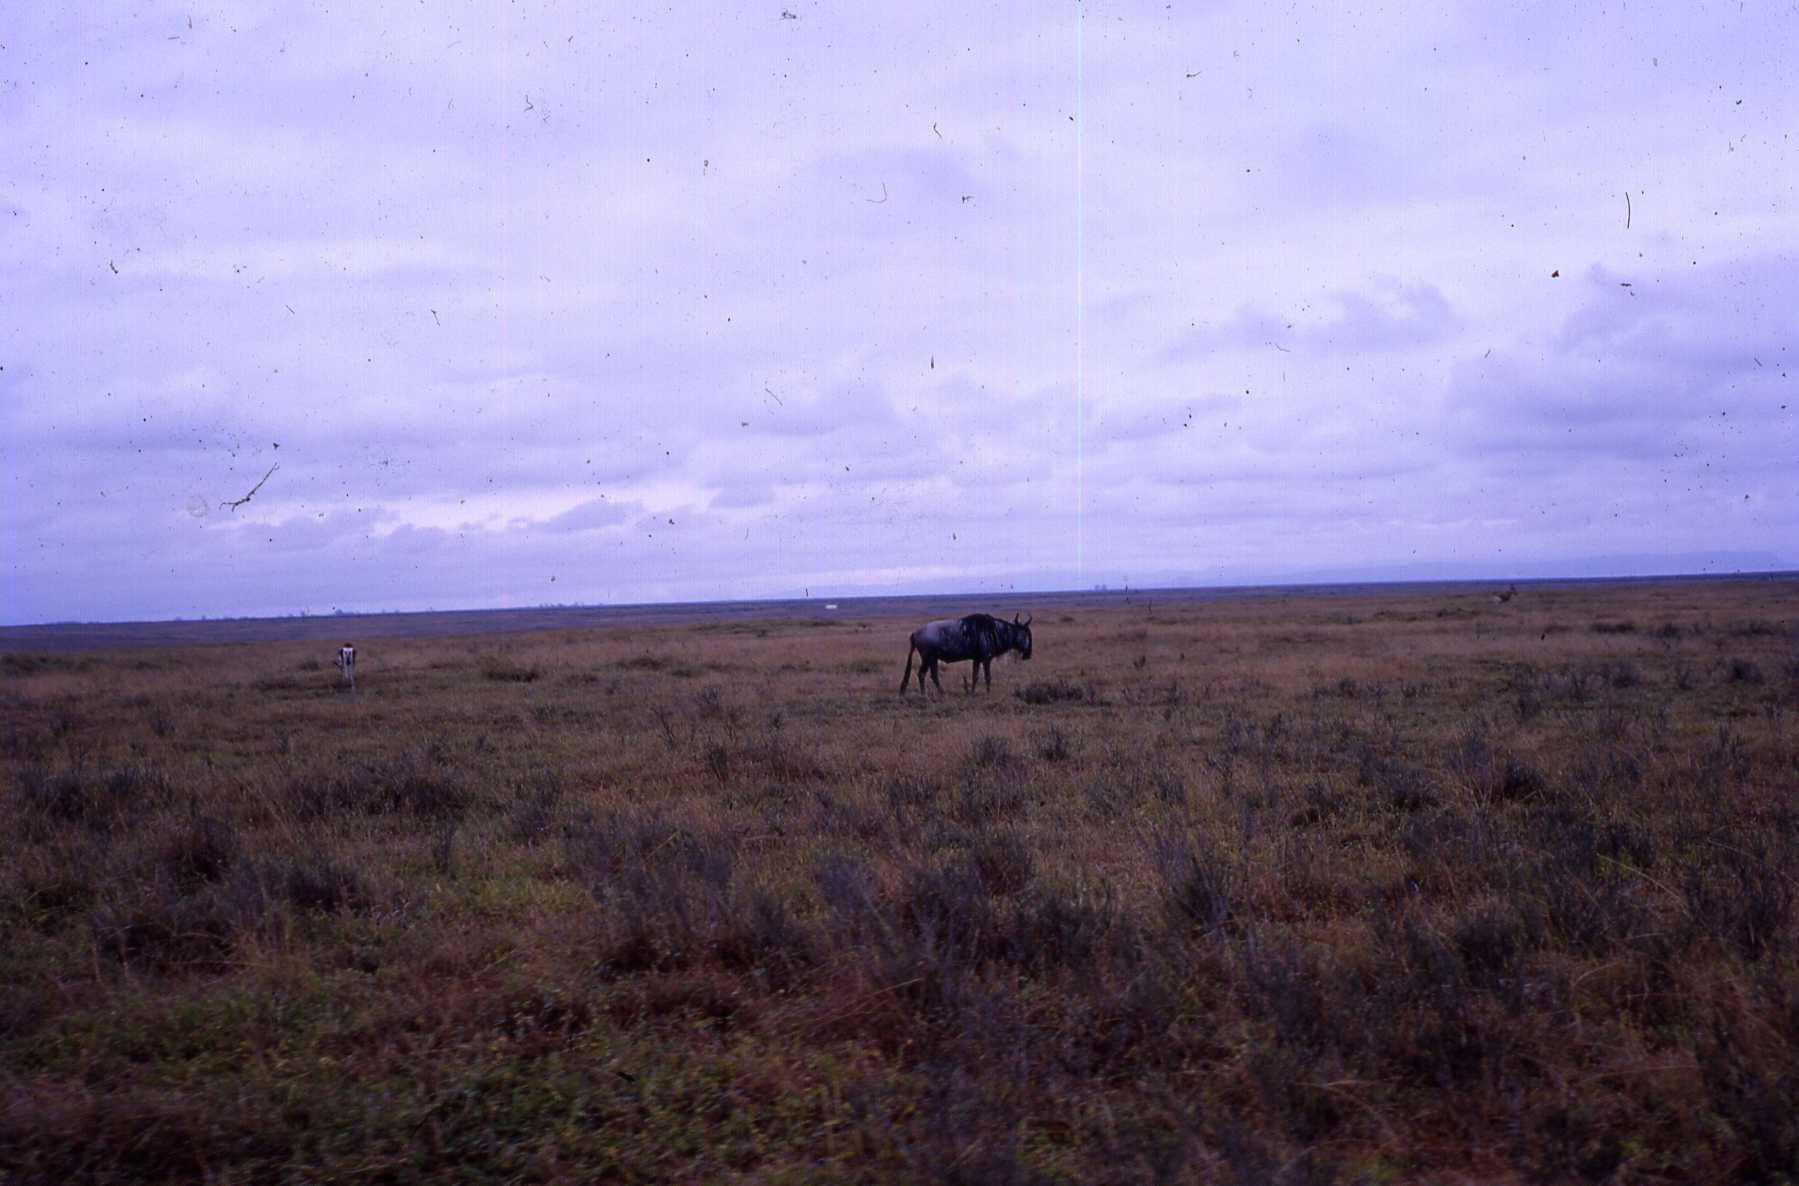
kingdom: Animalia
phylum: Chordata
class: Mammalia
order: Artiodactyla
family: Bovidae
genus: Connochaetes
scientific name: Connochaetes taurinus
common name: Blue wildebeest
